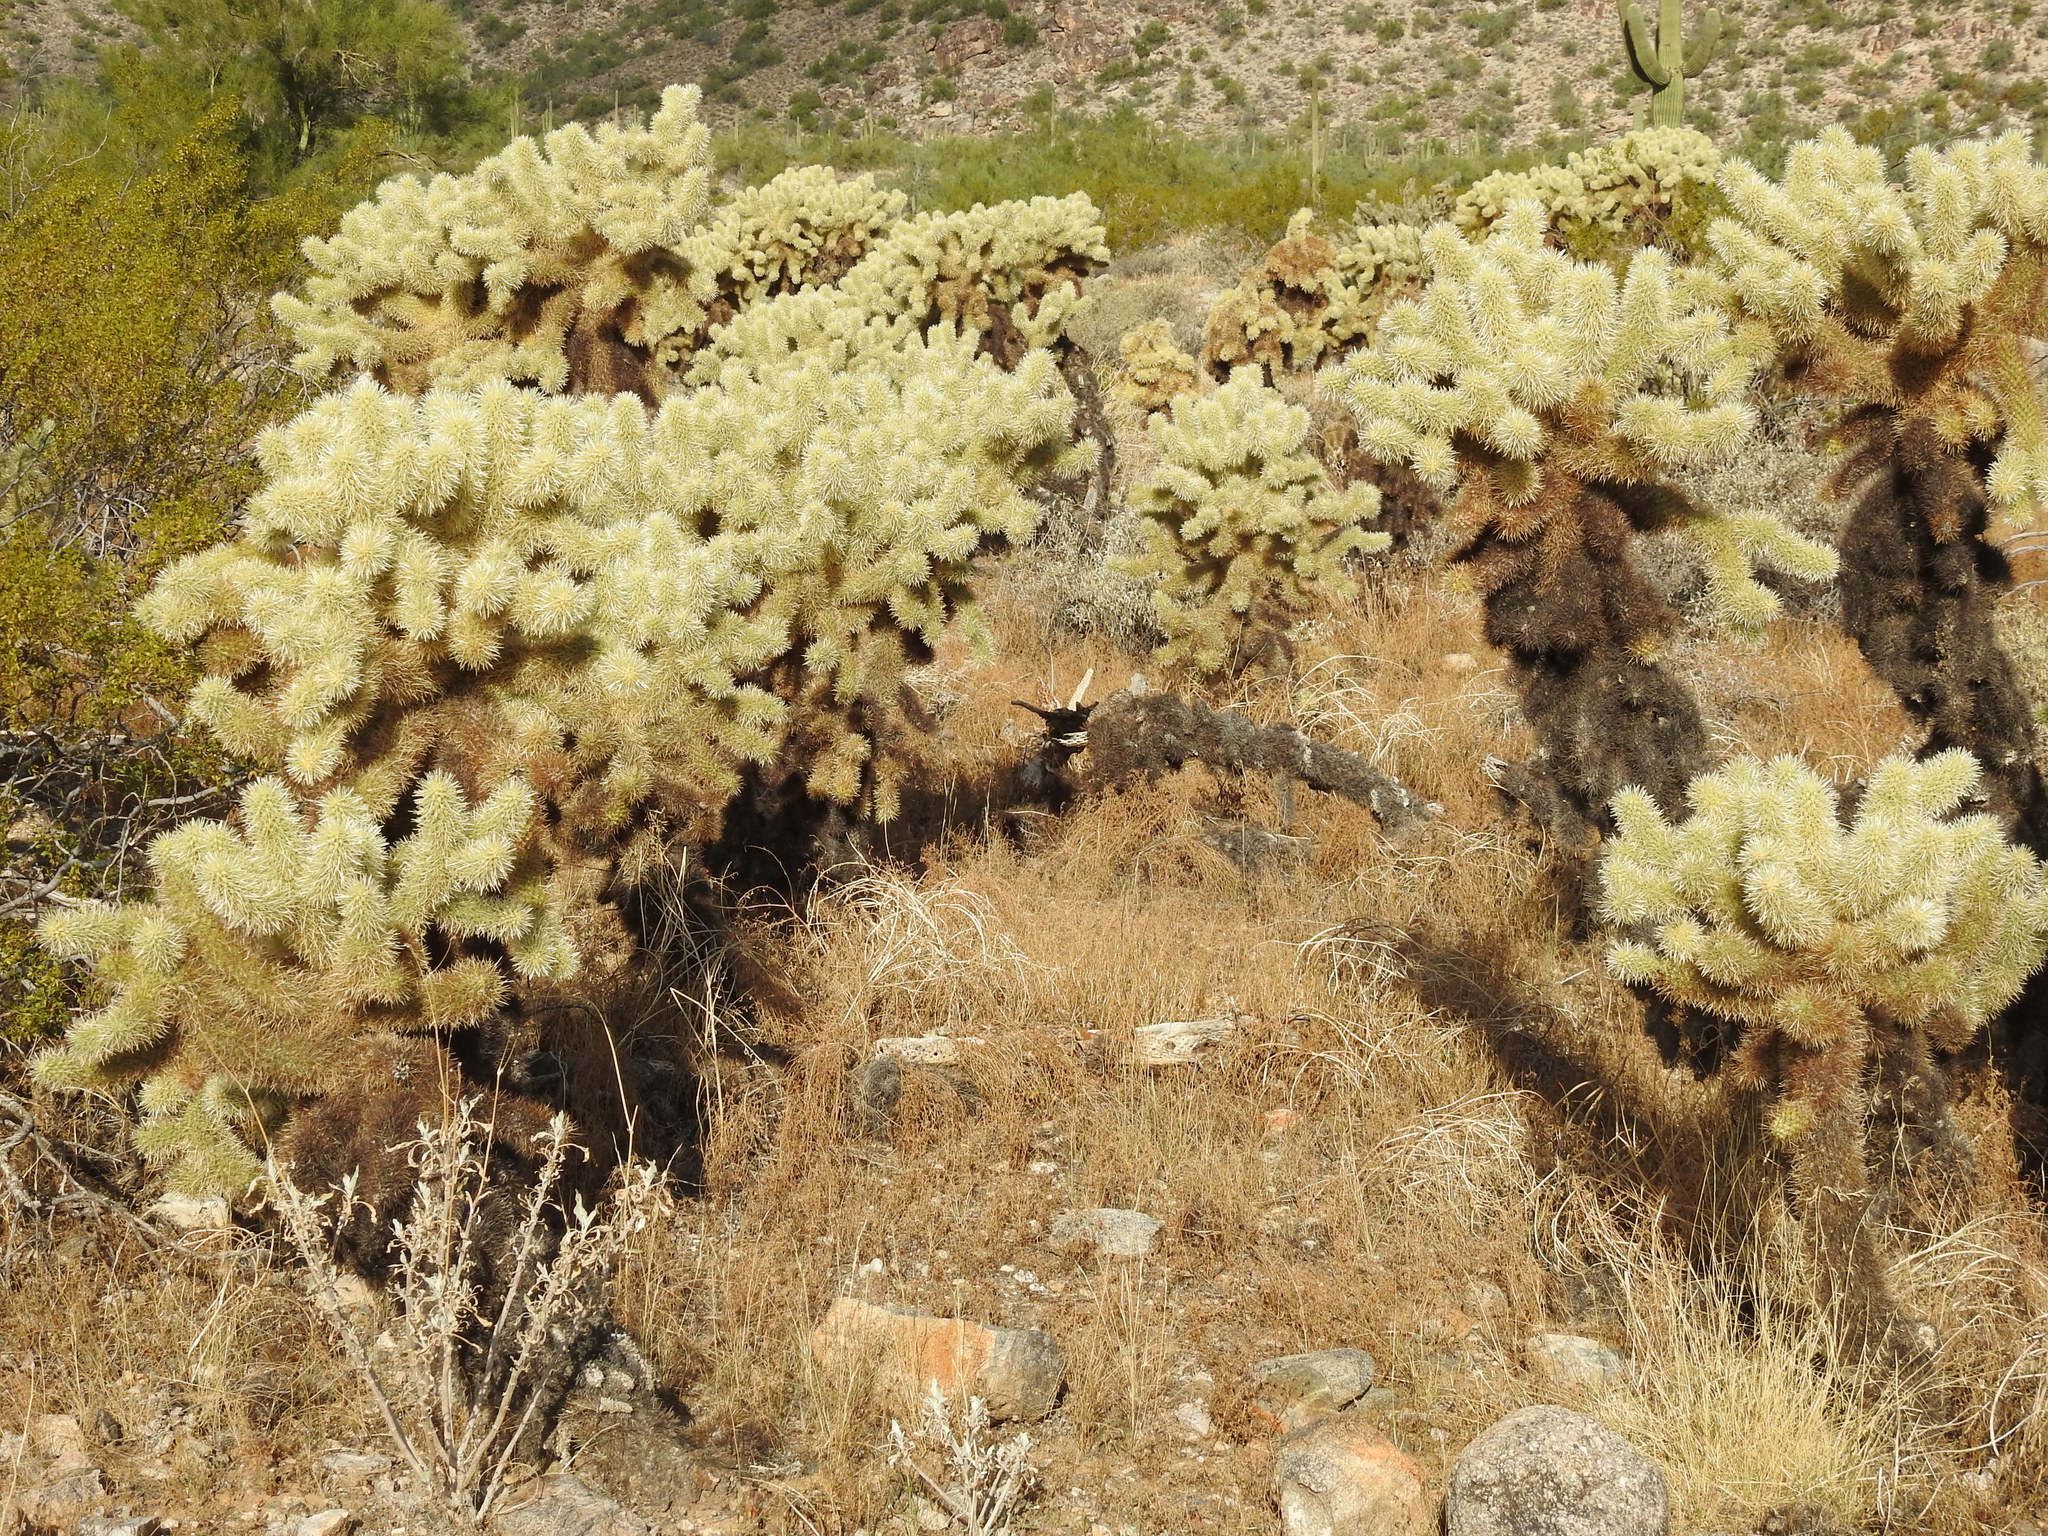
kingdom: Plantae
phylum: Tracheophyta
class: Magnoliopsida
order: Caryophyllales
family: Cactaceae
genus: Cylindropuntia
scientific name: Cylindropuntia fosbergii
